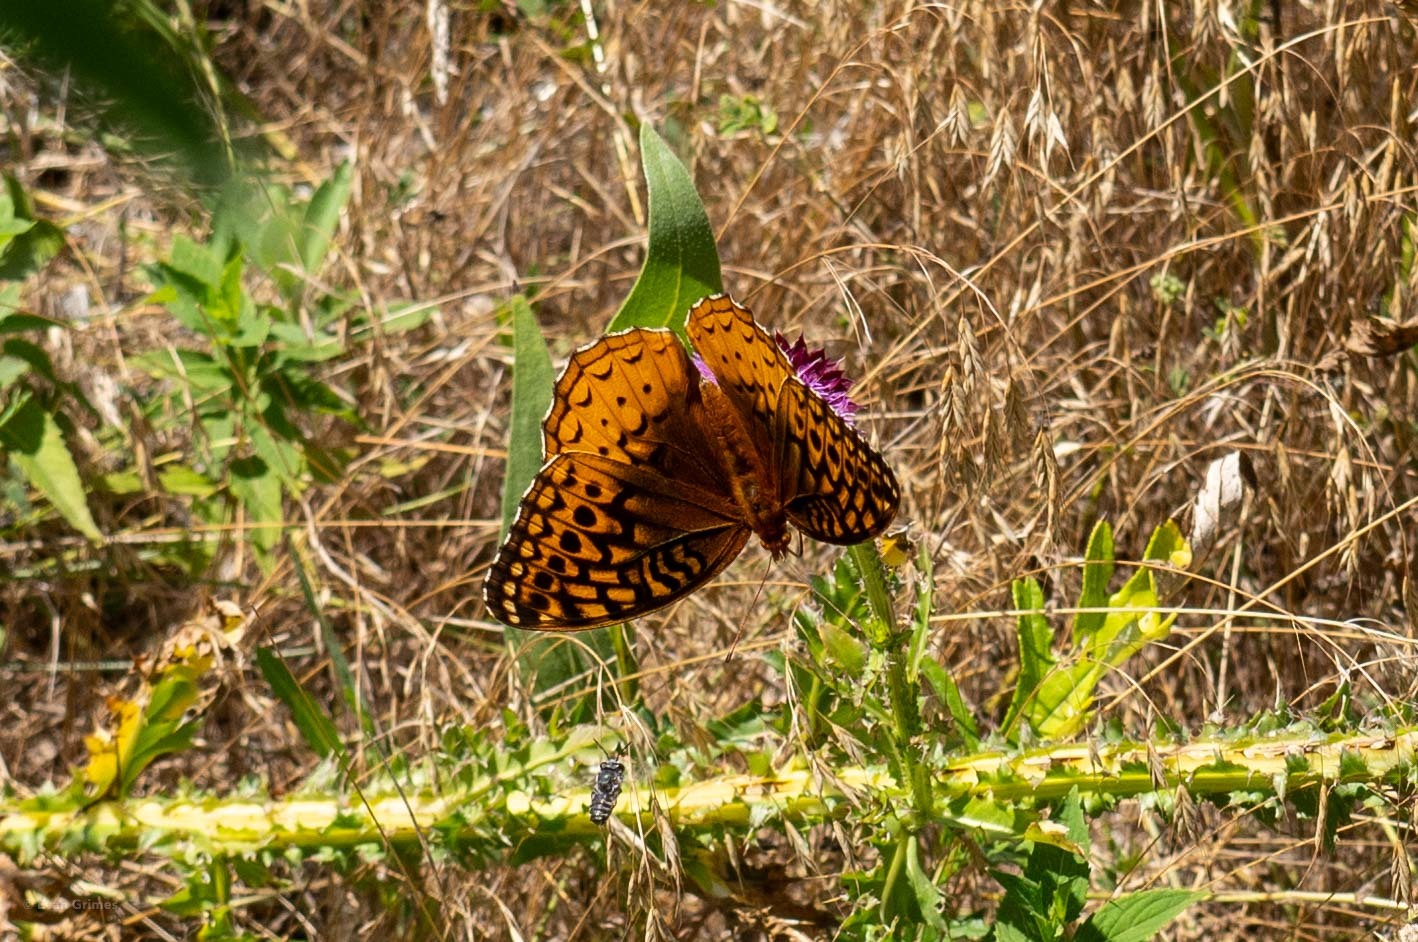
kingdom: Animalia
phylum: Arthropoda
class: Insecta
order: Lepidoptera
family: Nymphalidae
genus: Speyeria
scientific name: Speyeria cybele
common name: Great spangled fritillary
